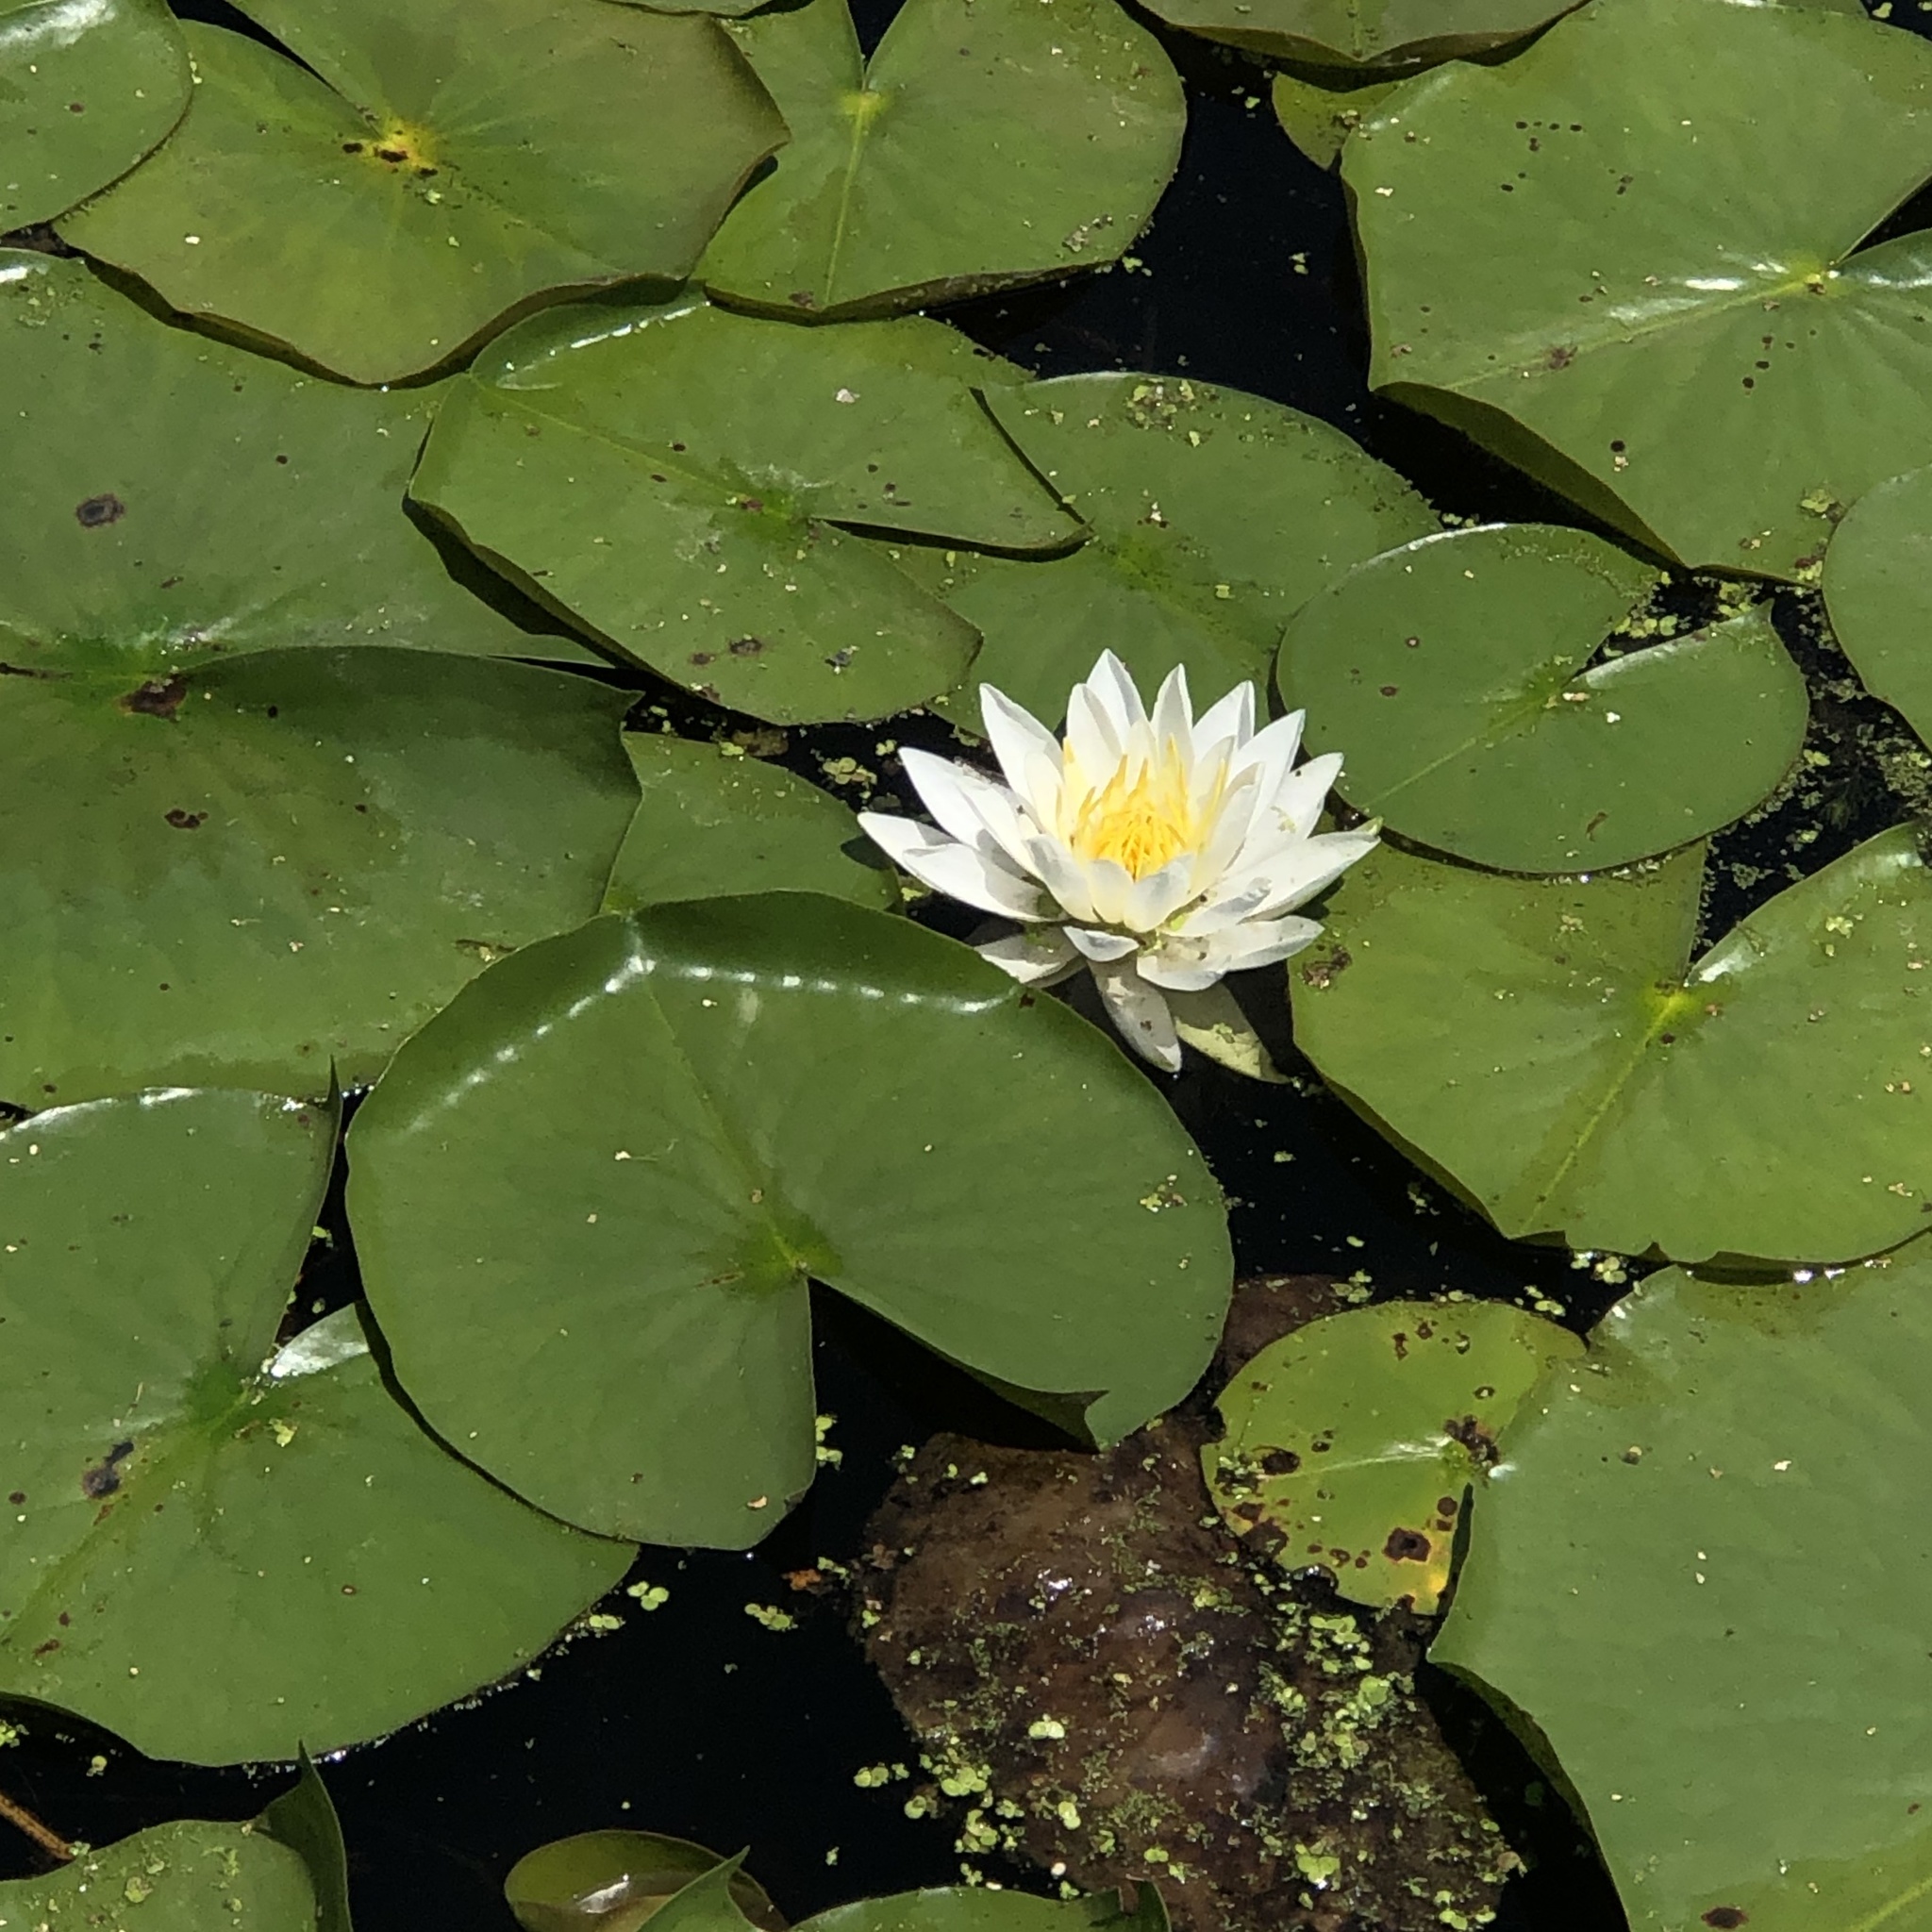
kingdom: Plantae
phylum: Tracheophyta
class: Magnoliopsida
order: Nymphaeales
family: Nymphaeaceae
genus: Nymphaea
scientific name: Nymphaea odorata
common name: Fragrant water-lily
